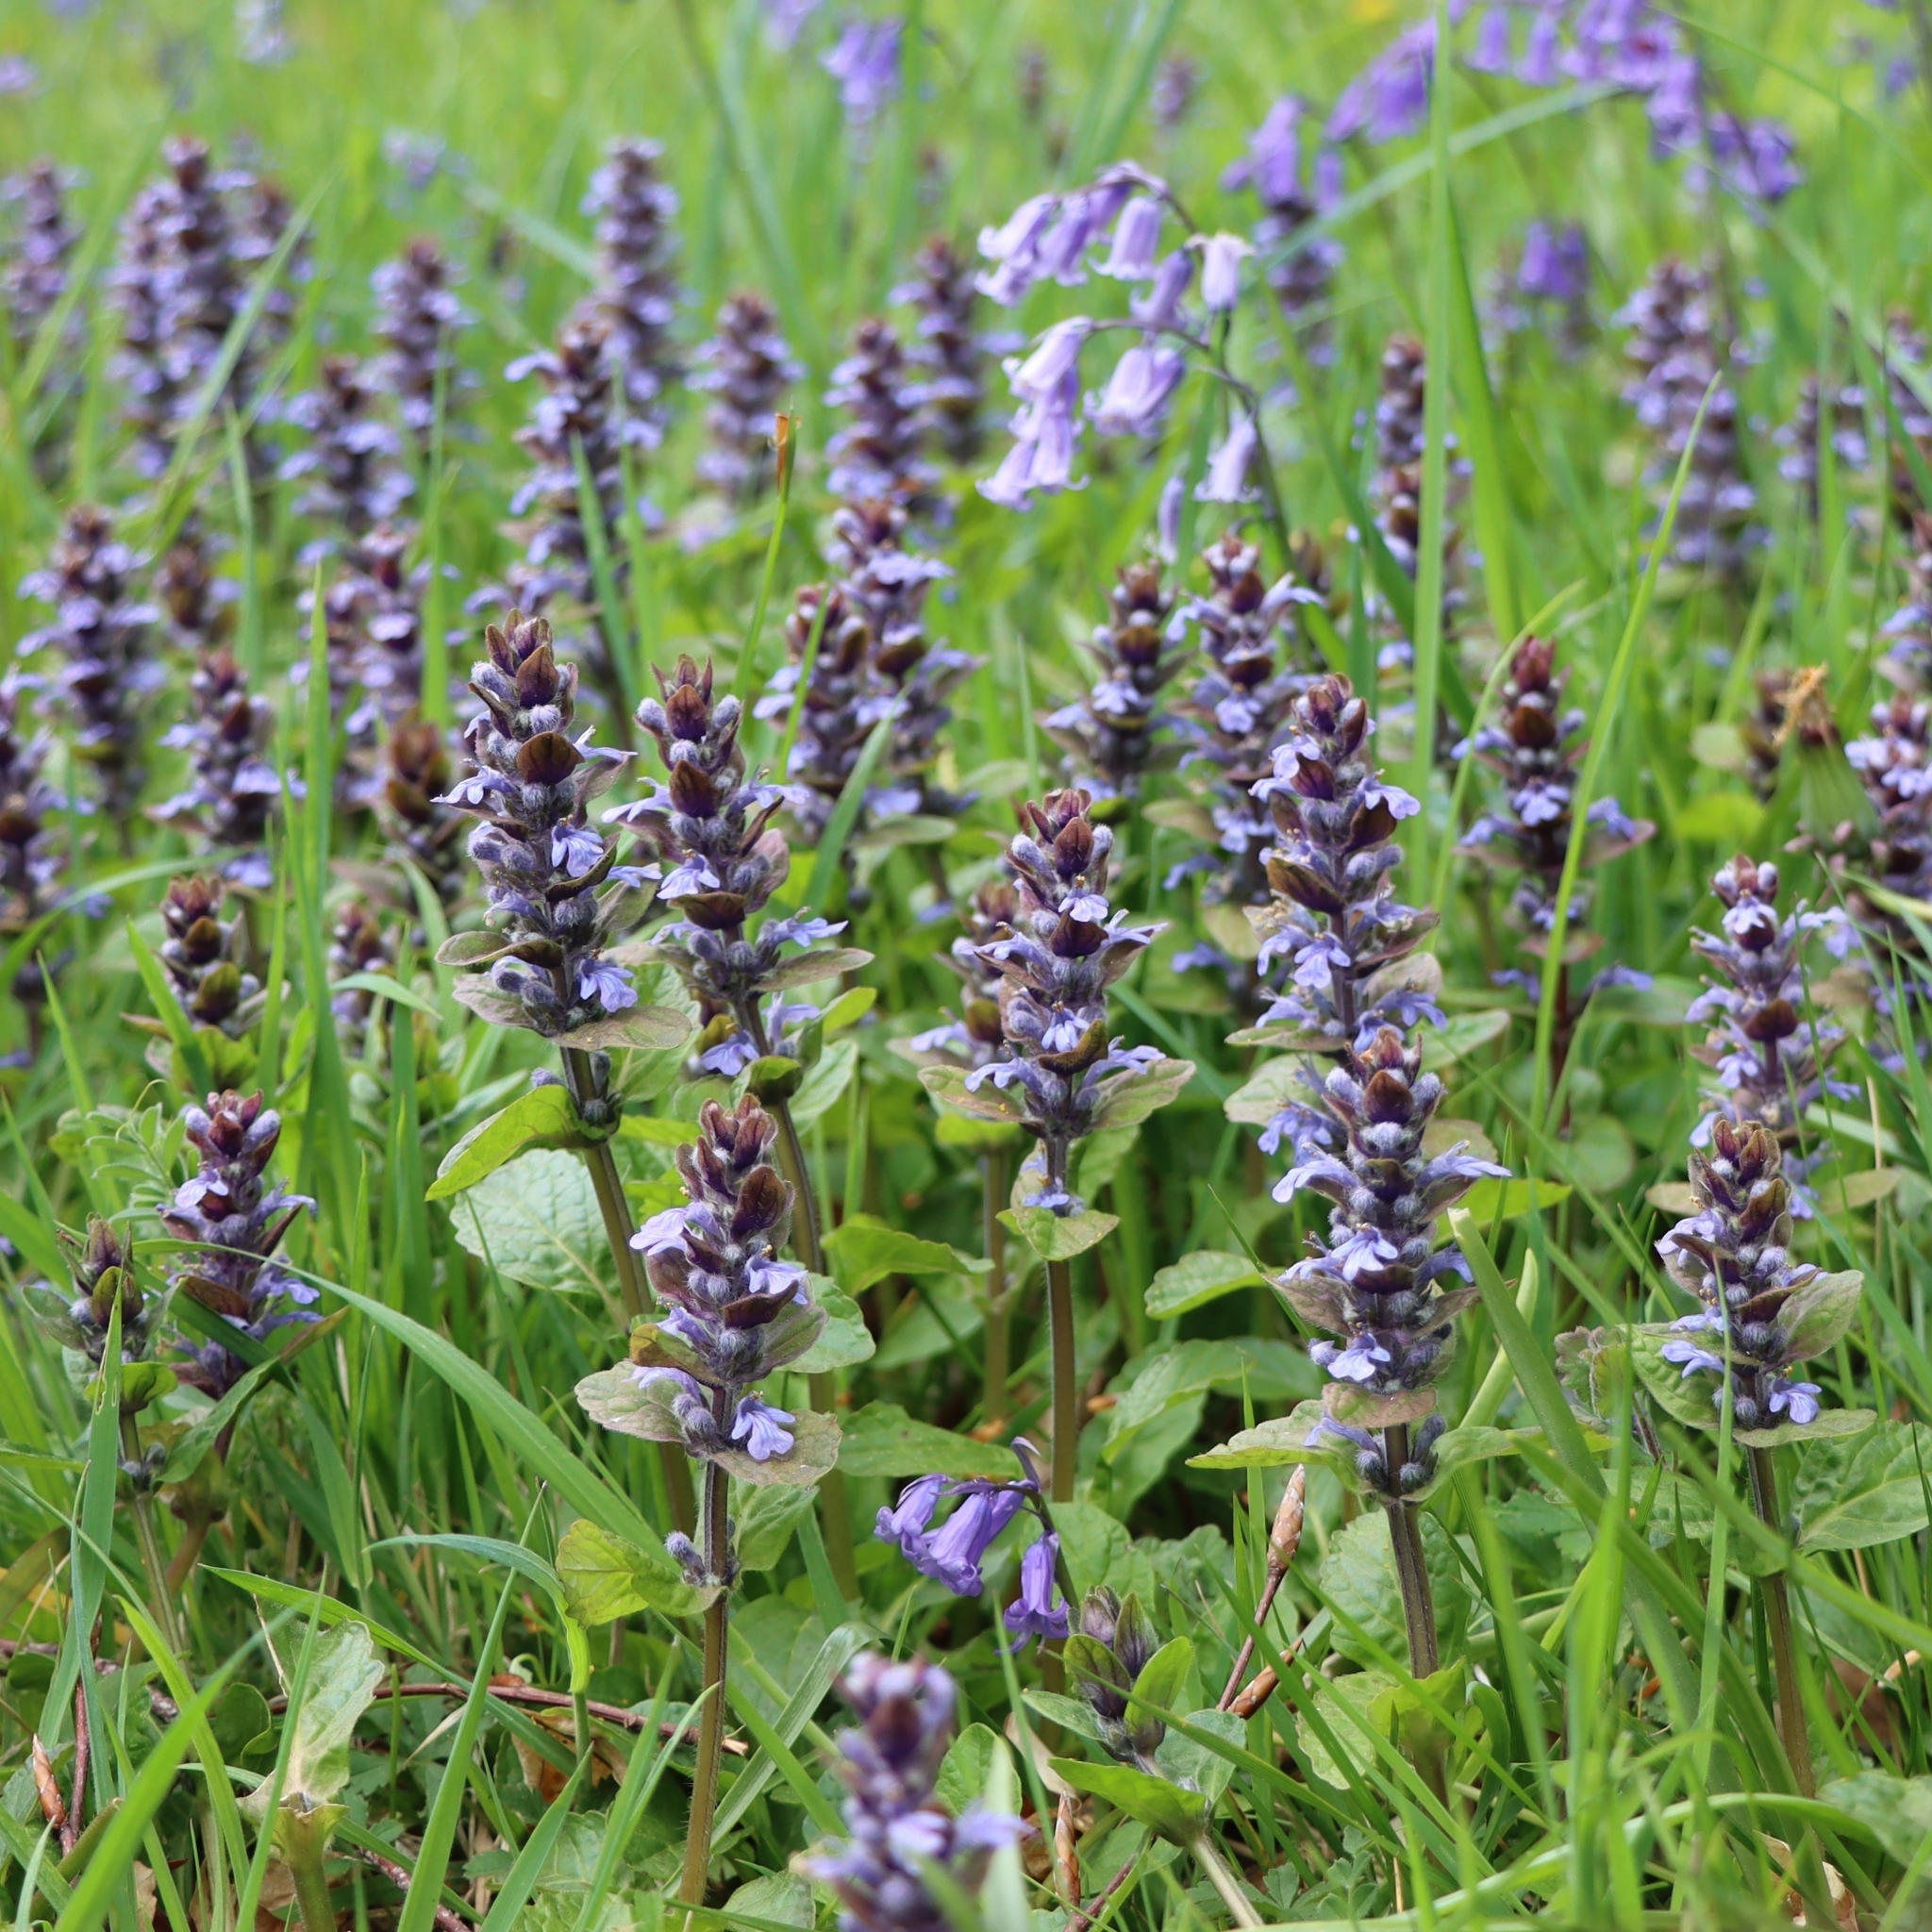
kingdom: Plantae
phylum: Tracheophyta
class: Magnoliopsida
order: Lamiales
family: Lamiaceae
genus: Ajuga
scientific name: Ajuga reptans
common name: Bugle
